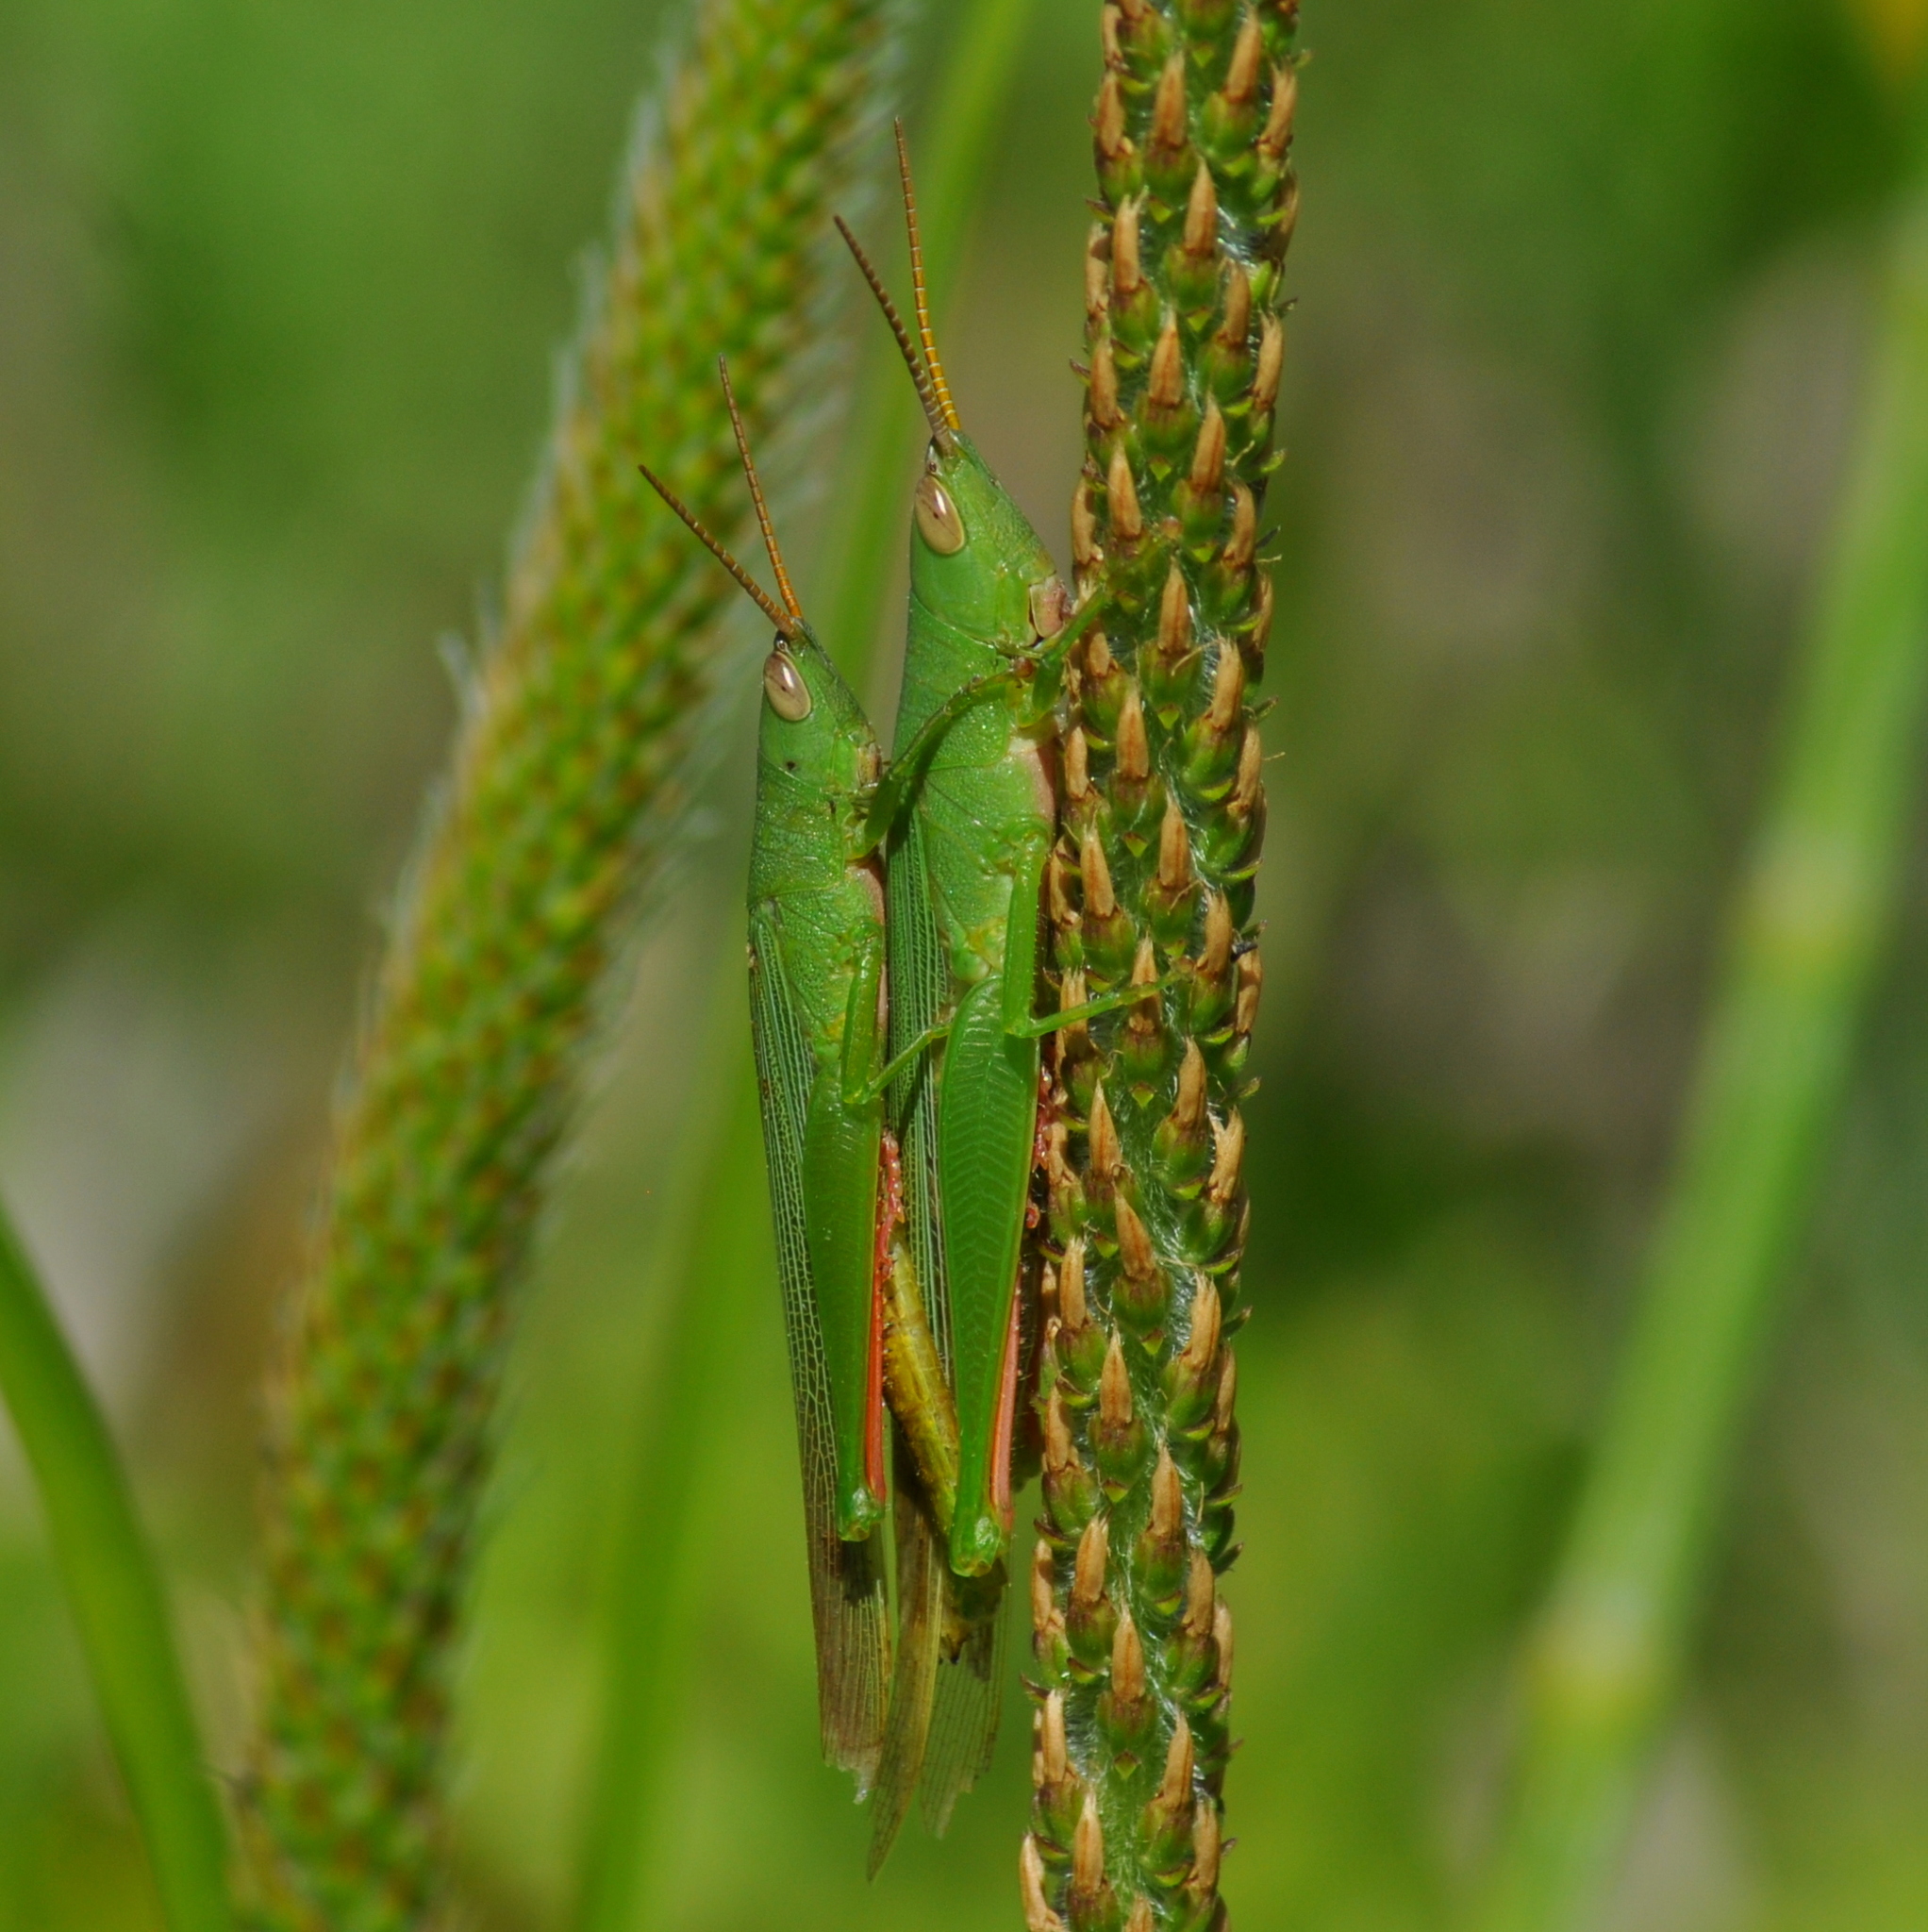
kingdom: Animalia
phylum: Arthropoda
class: Insecta
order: Orthoptera
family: Acrididae
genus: Belosacris
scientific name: Belosacris coccineipes
